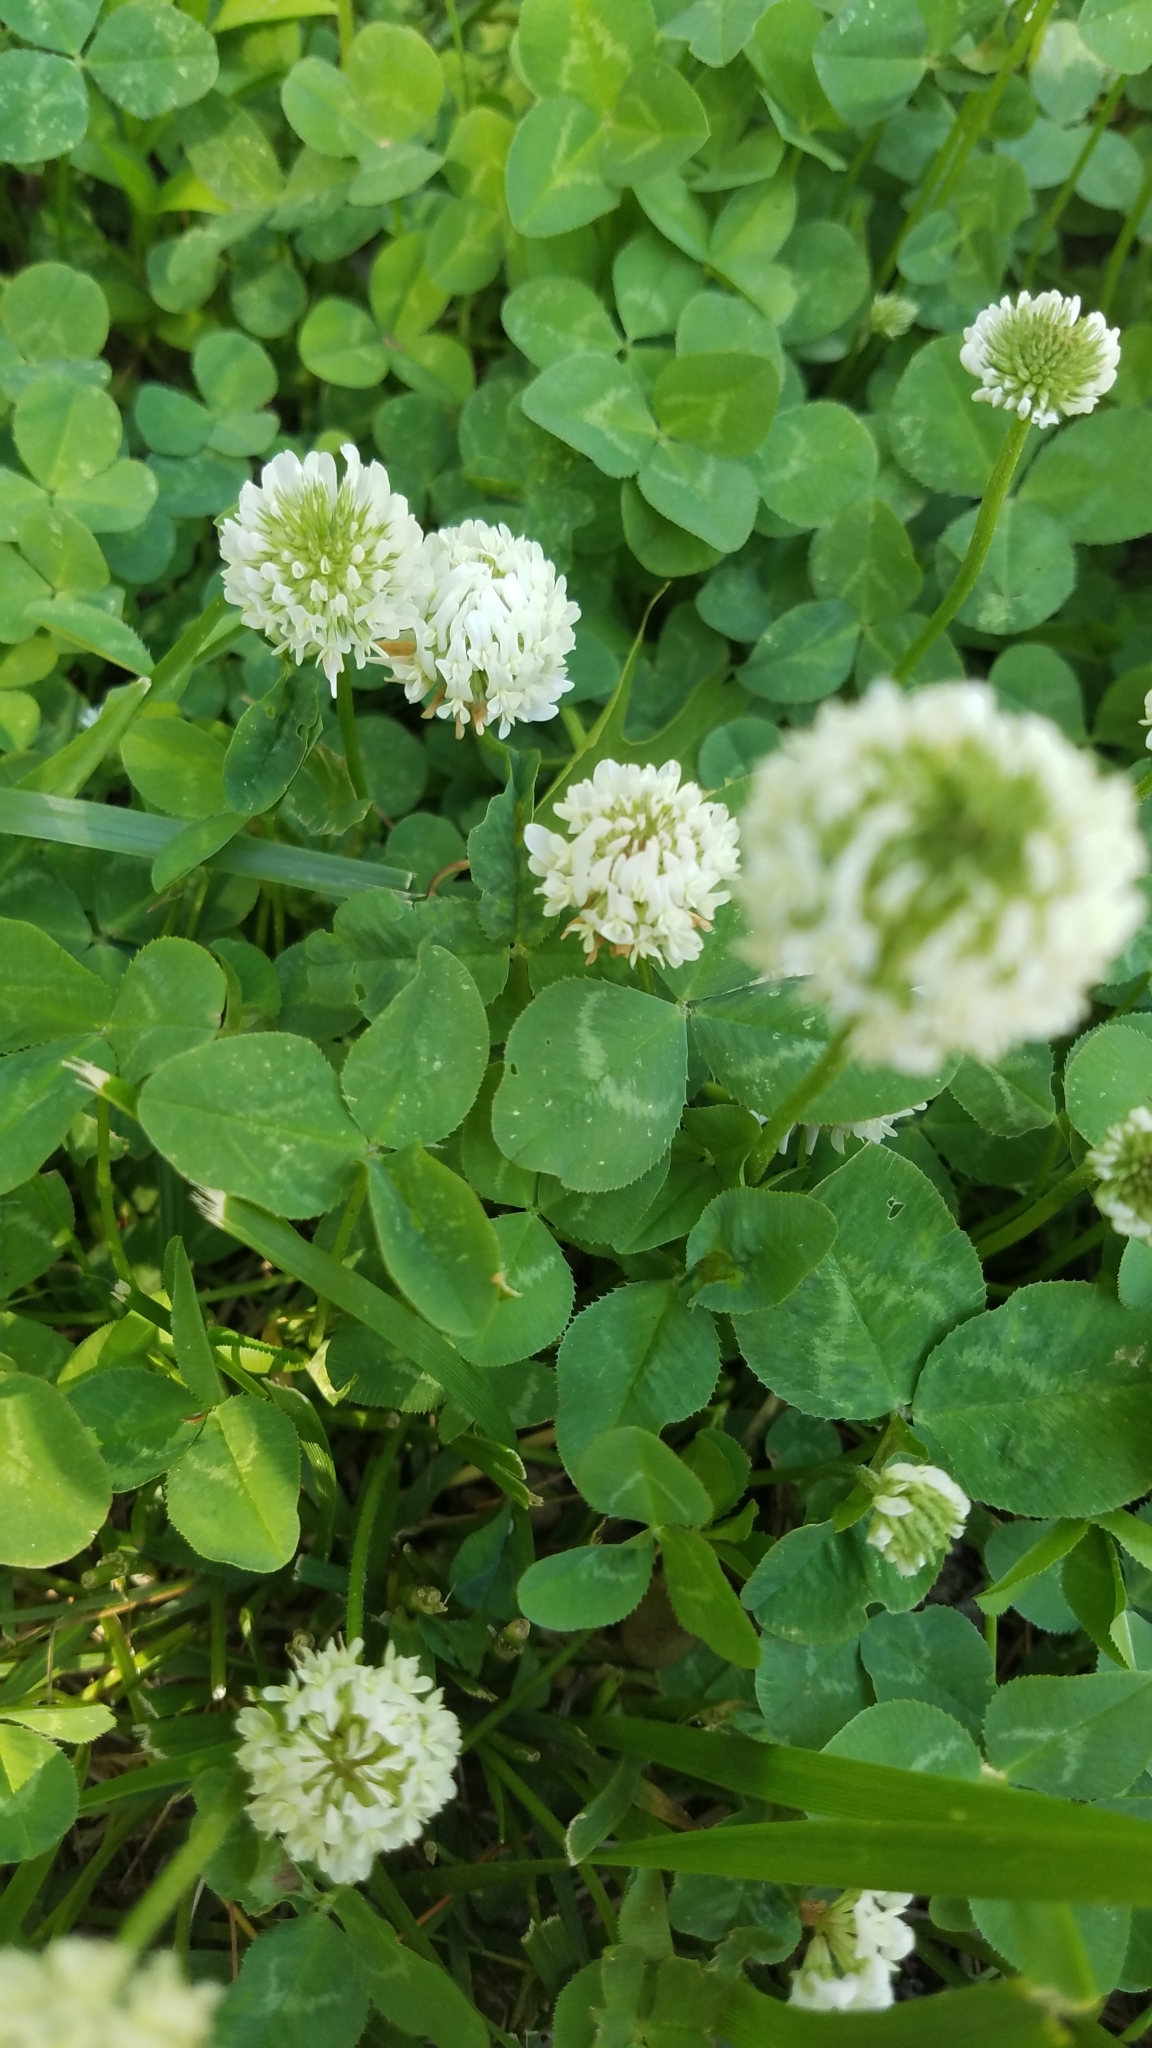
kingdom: Plantae
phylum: Tracheophyta
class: Magnoliopsida
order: Fabales
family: Fabaceae
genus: Trifolium
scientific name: Trifolium repens
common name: White clover
